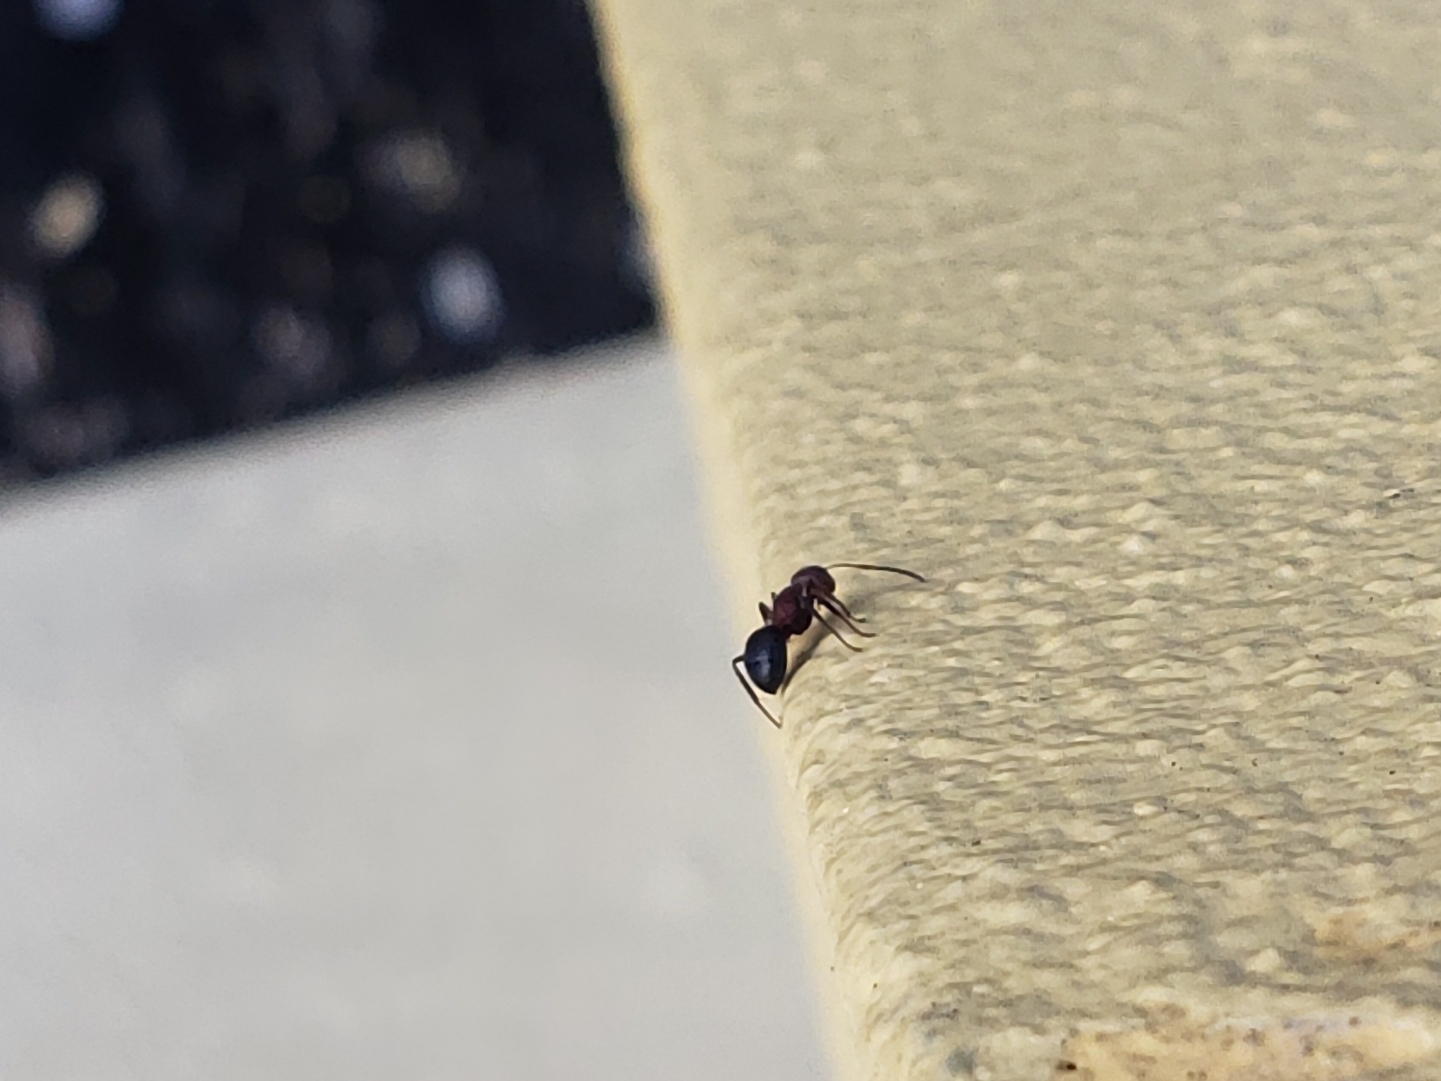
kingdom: Animalia
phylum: Arthropoda
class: Insecta
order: Hymenoptera
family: Formicidae
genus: Camponotus
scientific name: Camponotus planatus
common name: Compact carpenter ant
